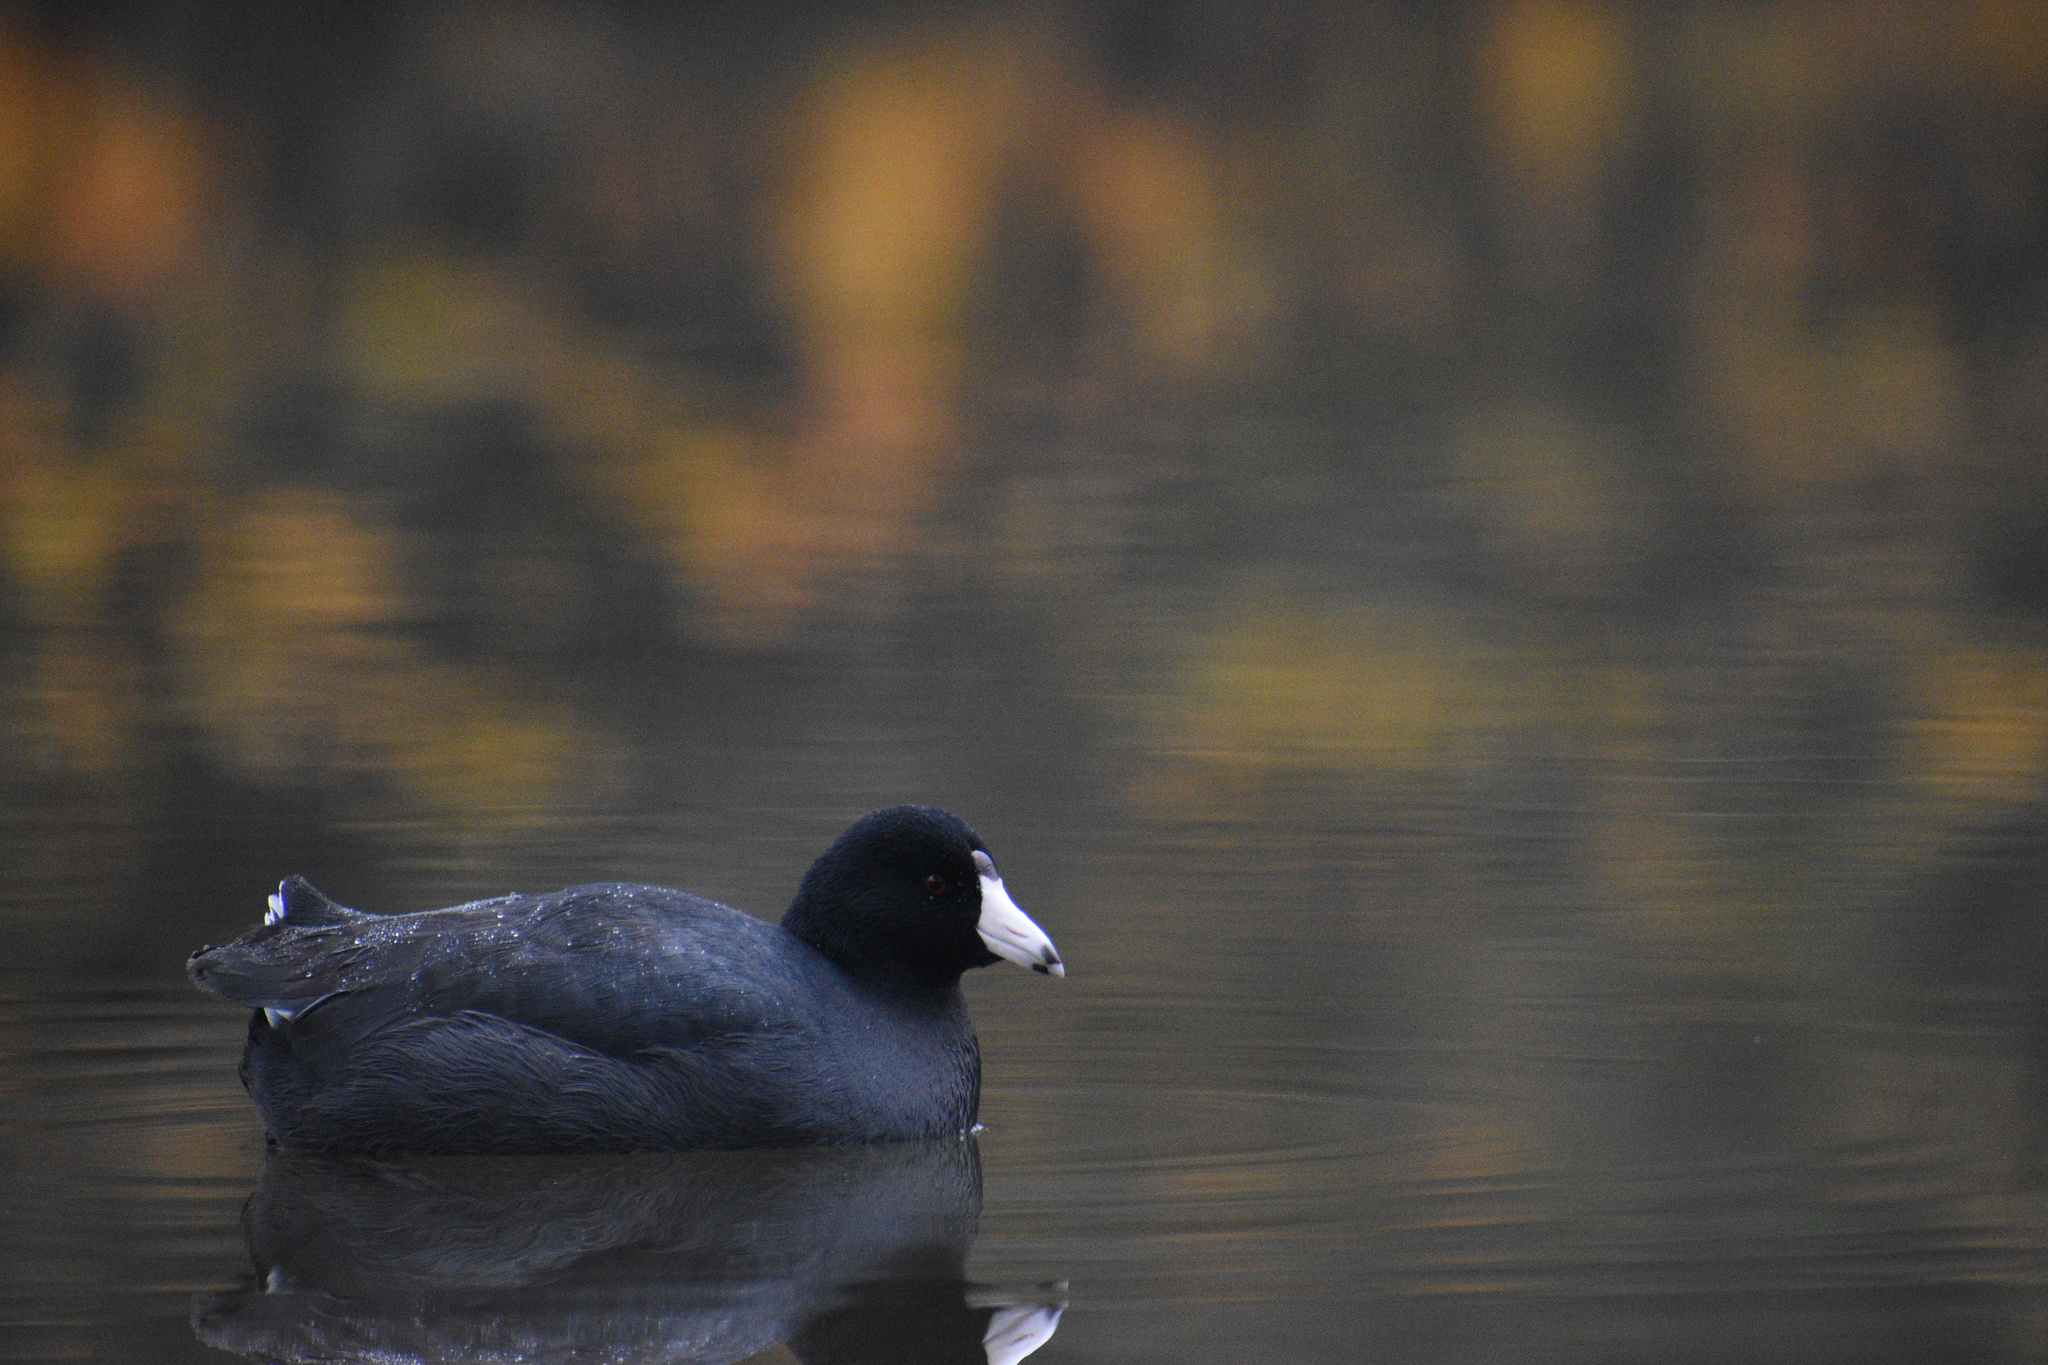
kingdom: Animalia
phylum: Chordata
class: Aves
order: Gruiformes
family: Rallidae
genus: Fulica
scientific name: Fulica americana
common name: American coot
